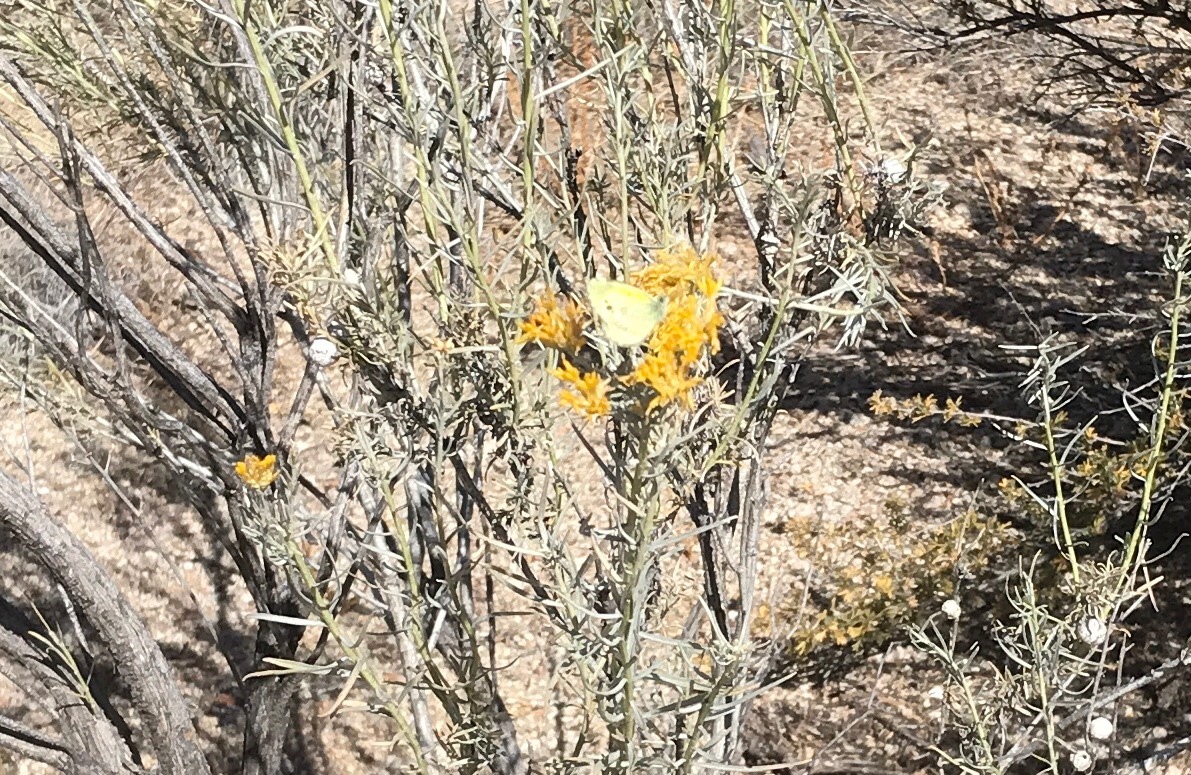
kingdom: Animalia
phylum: Arthropoda
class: Insecta
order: Lepidoptera
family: Pieridae
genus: Nathalis
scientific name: Nathalis iole
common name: Dainty sulphur
